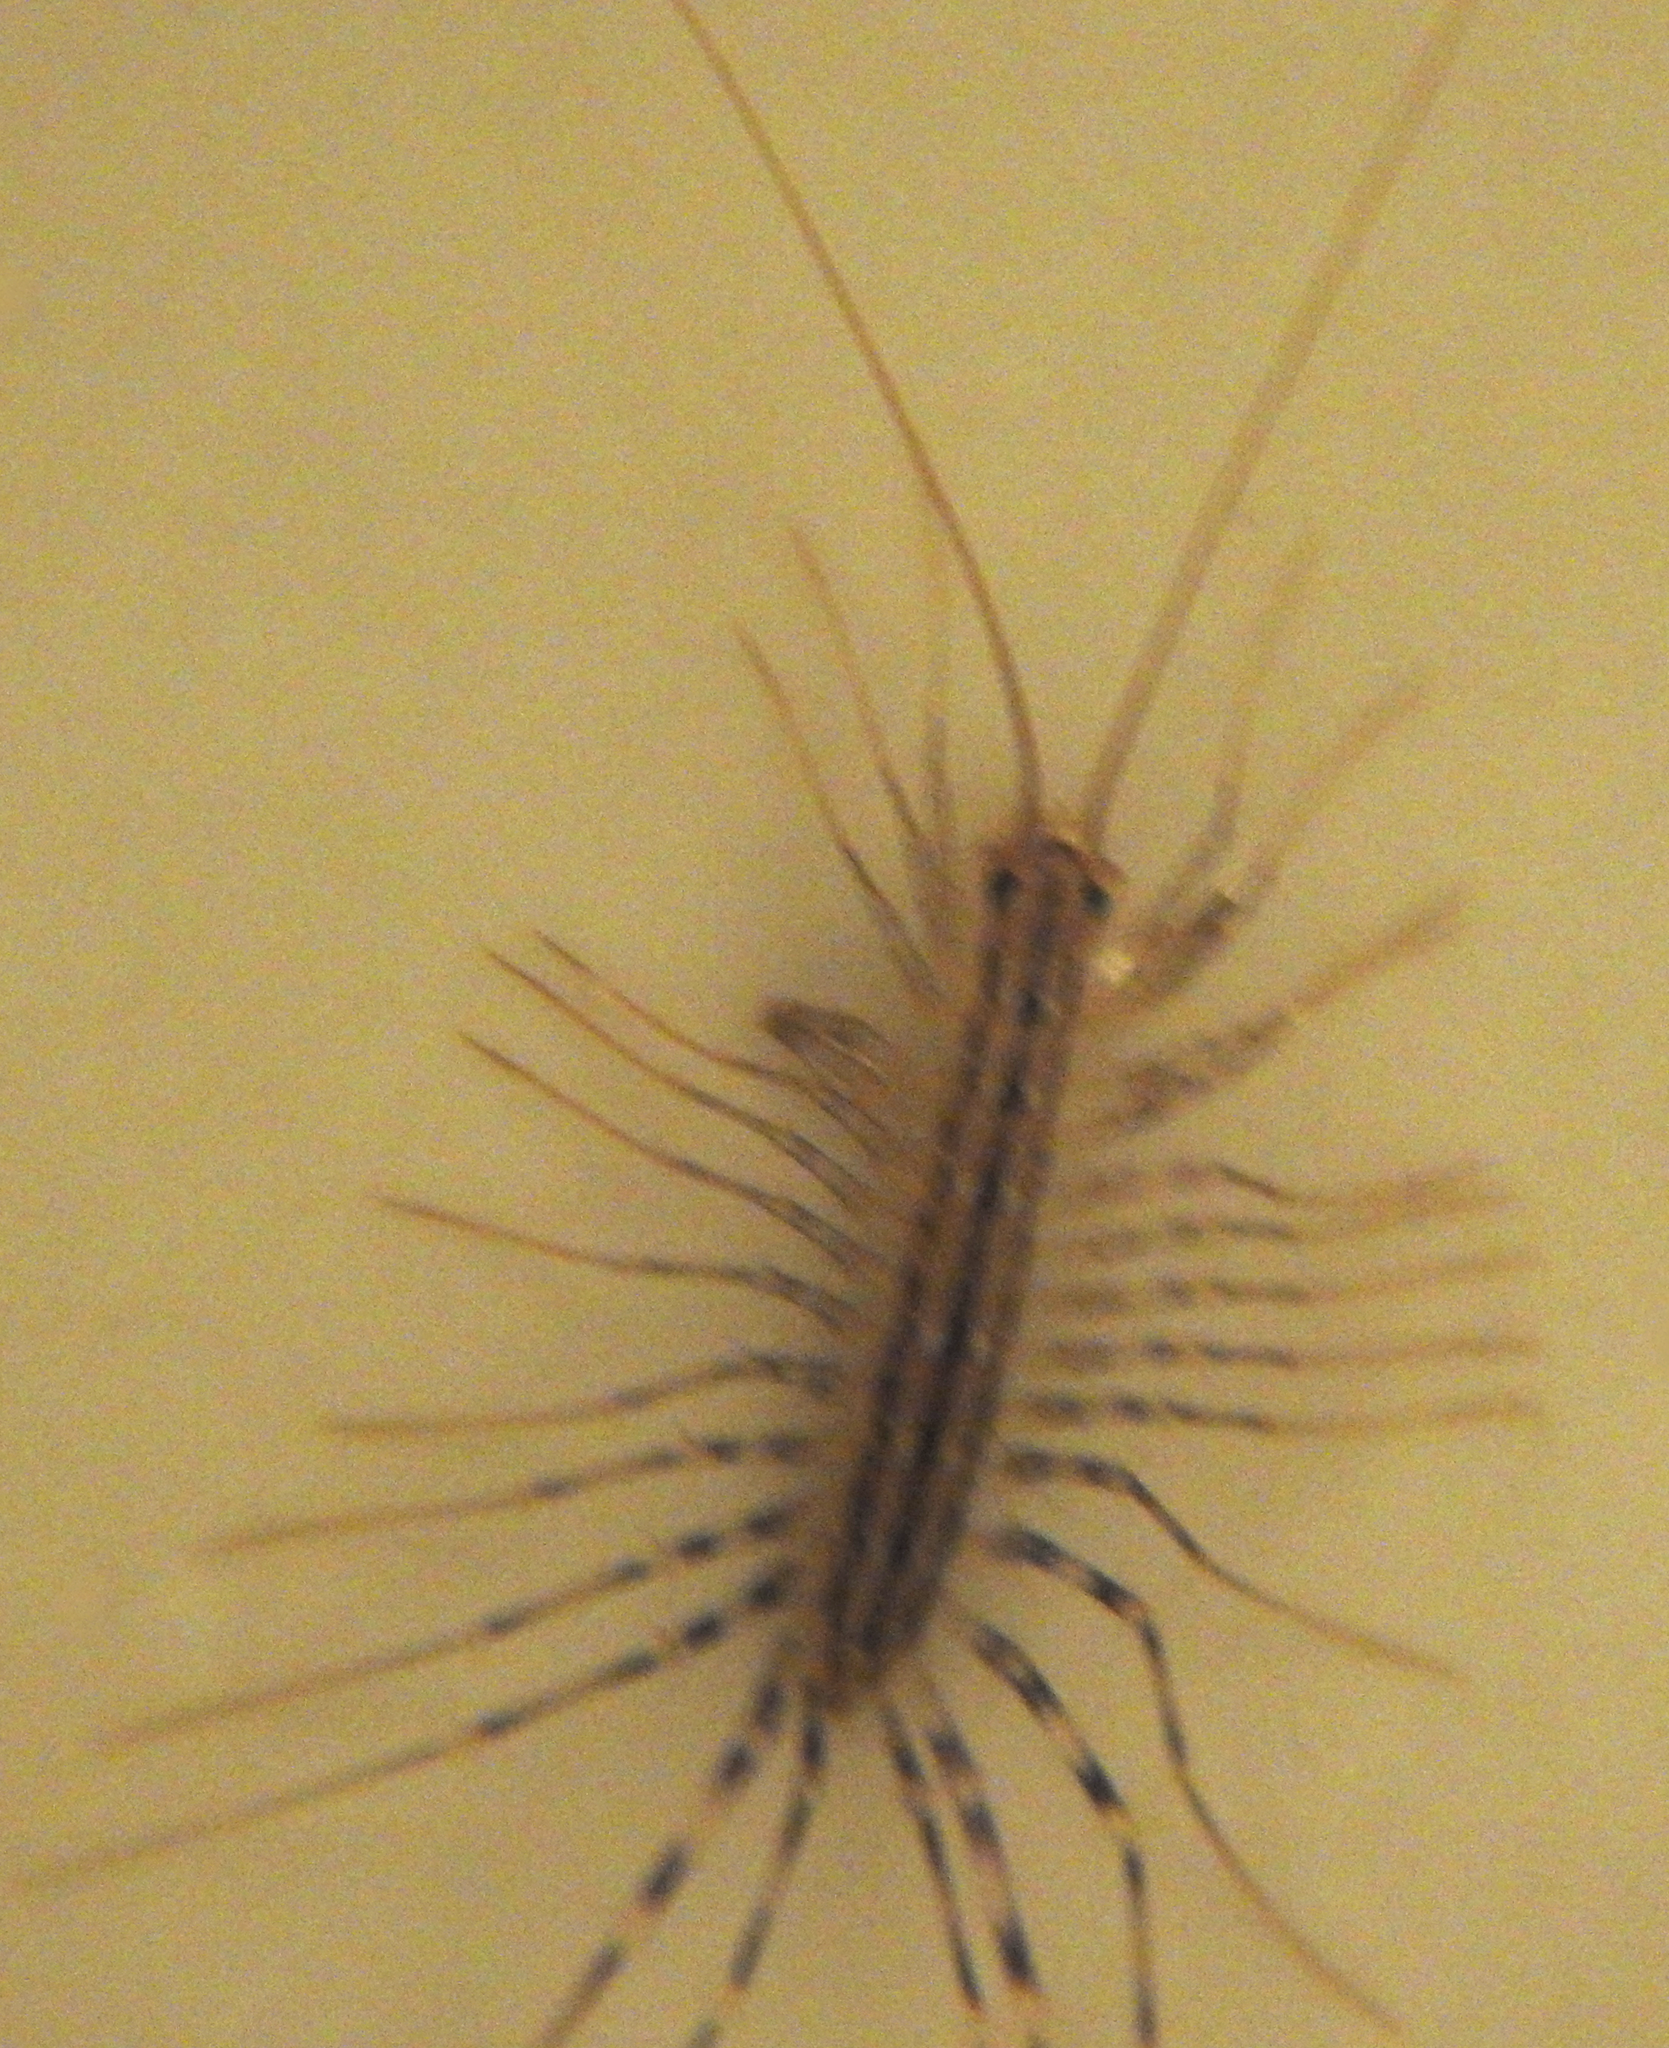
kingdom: Animalia
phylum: Arthropoda
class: Chilopoda
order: Scutigeromorpha
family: Scutigeridae
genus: Scutigera
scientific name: Scutigera coleoptrata
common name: House centipede
